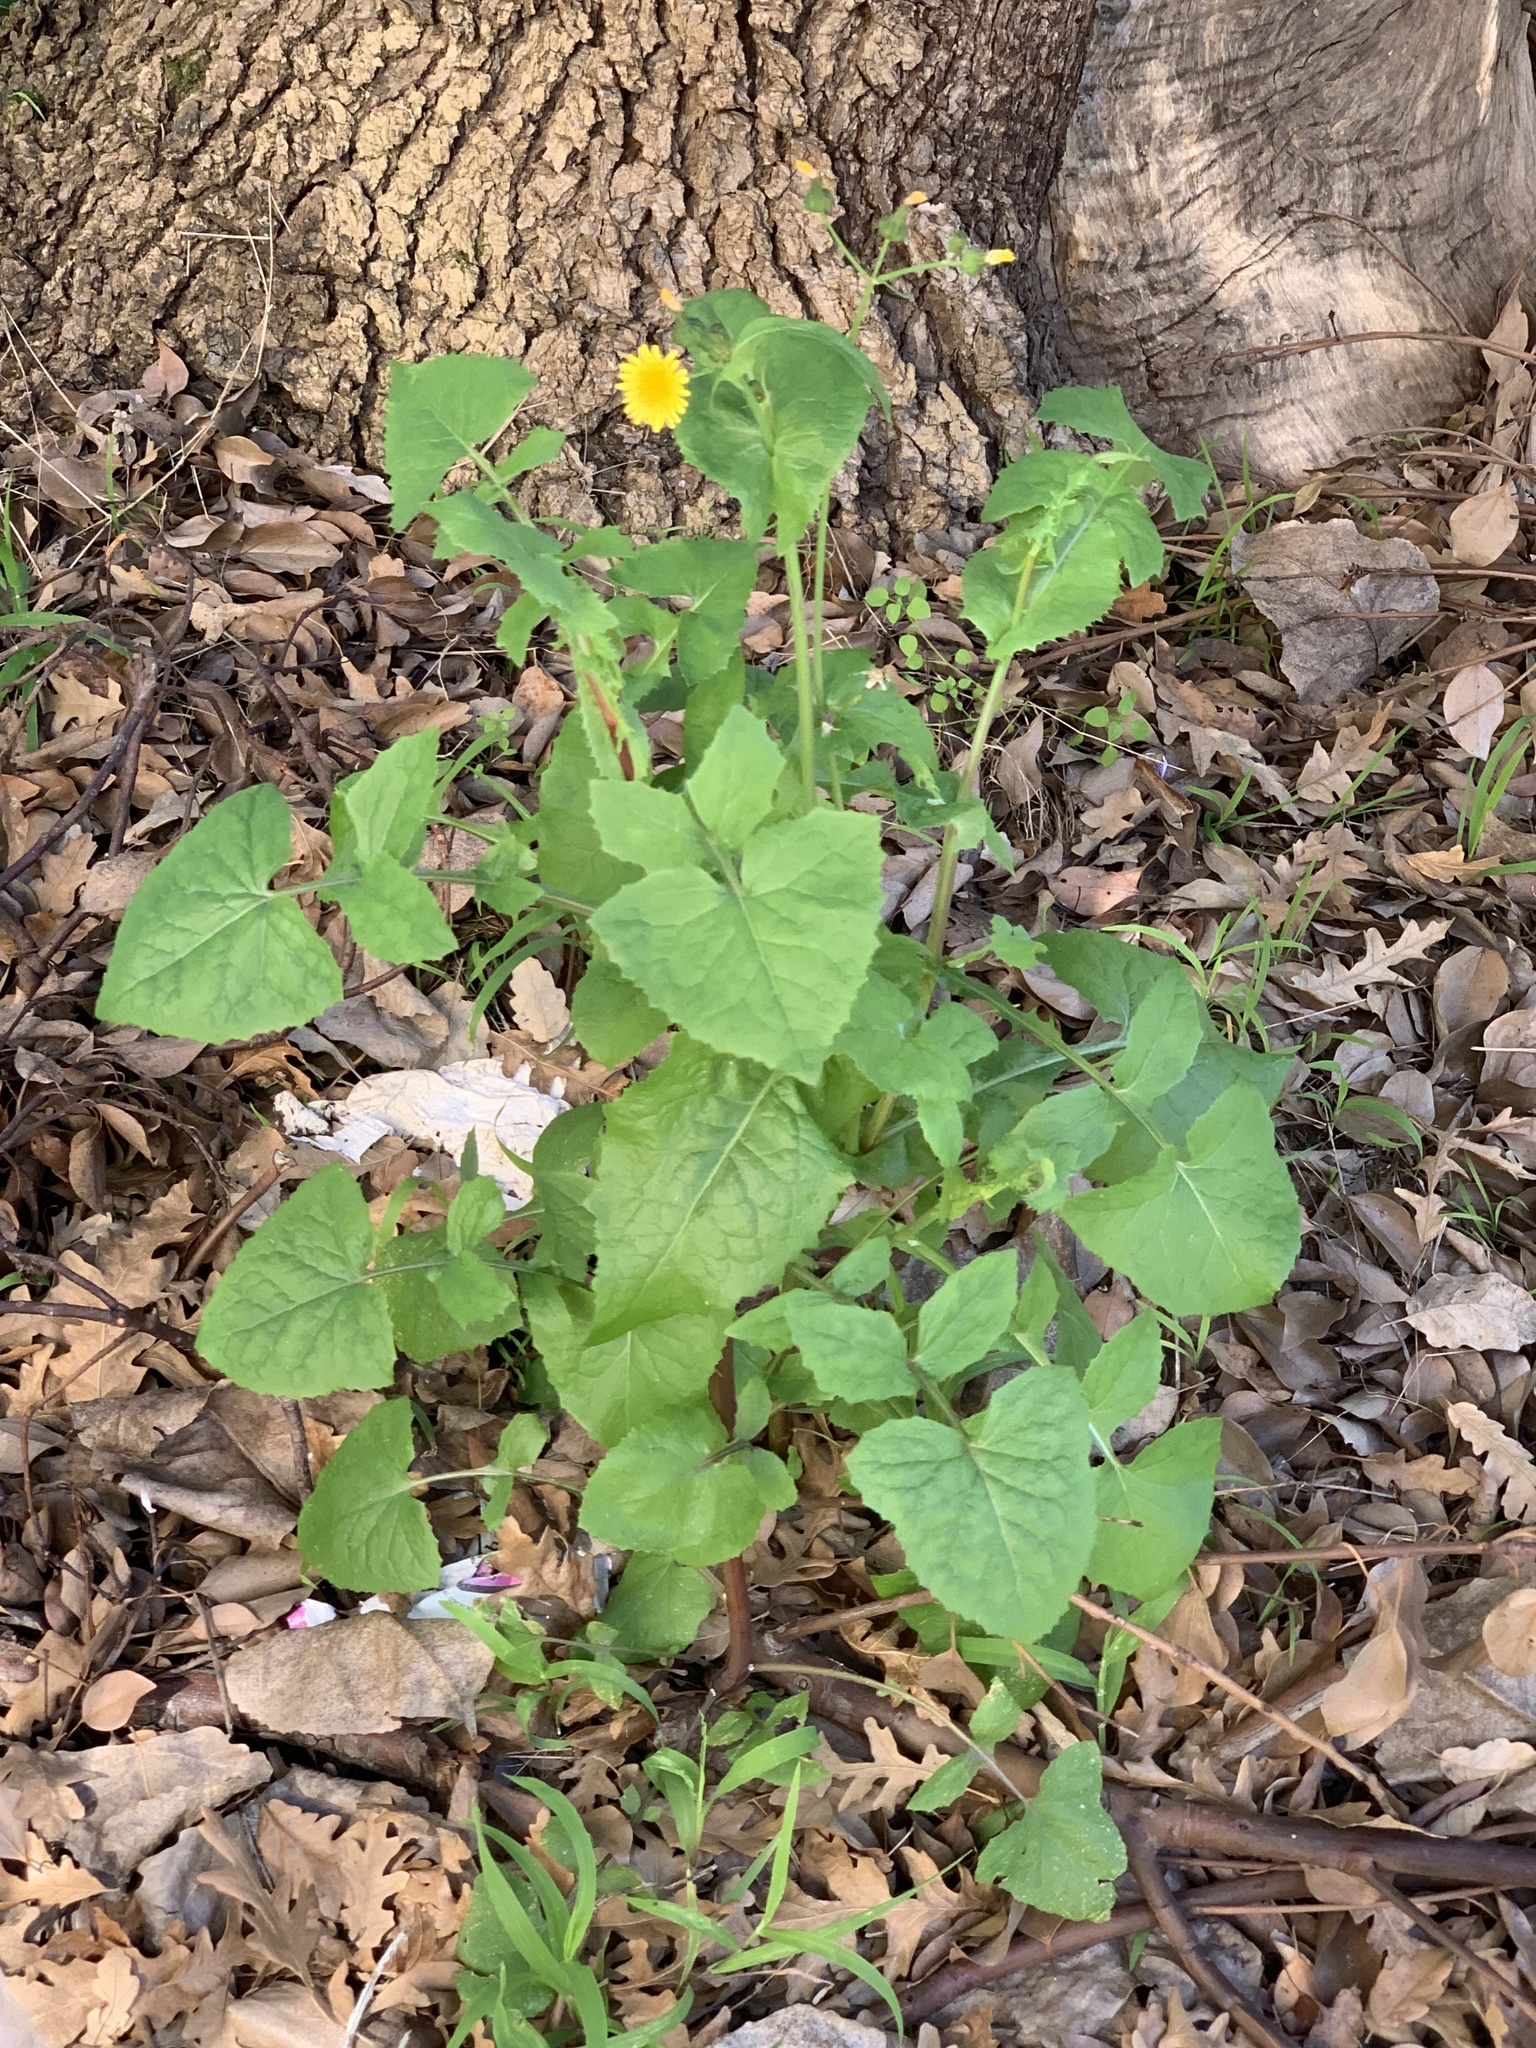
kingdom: Plantae
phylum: Tracheophyta
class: Magnoliopsida
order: Asterales
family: Asteraceae
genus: Sonchus
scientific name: Sonchus oleraceus
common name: Common sowthistle
